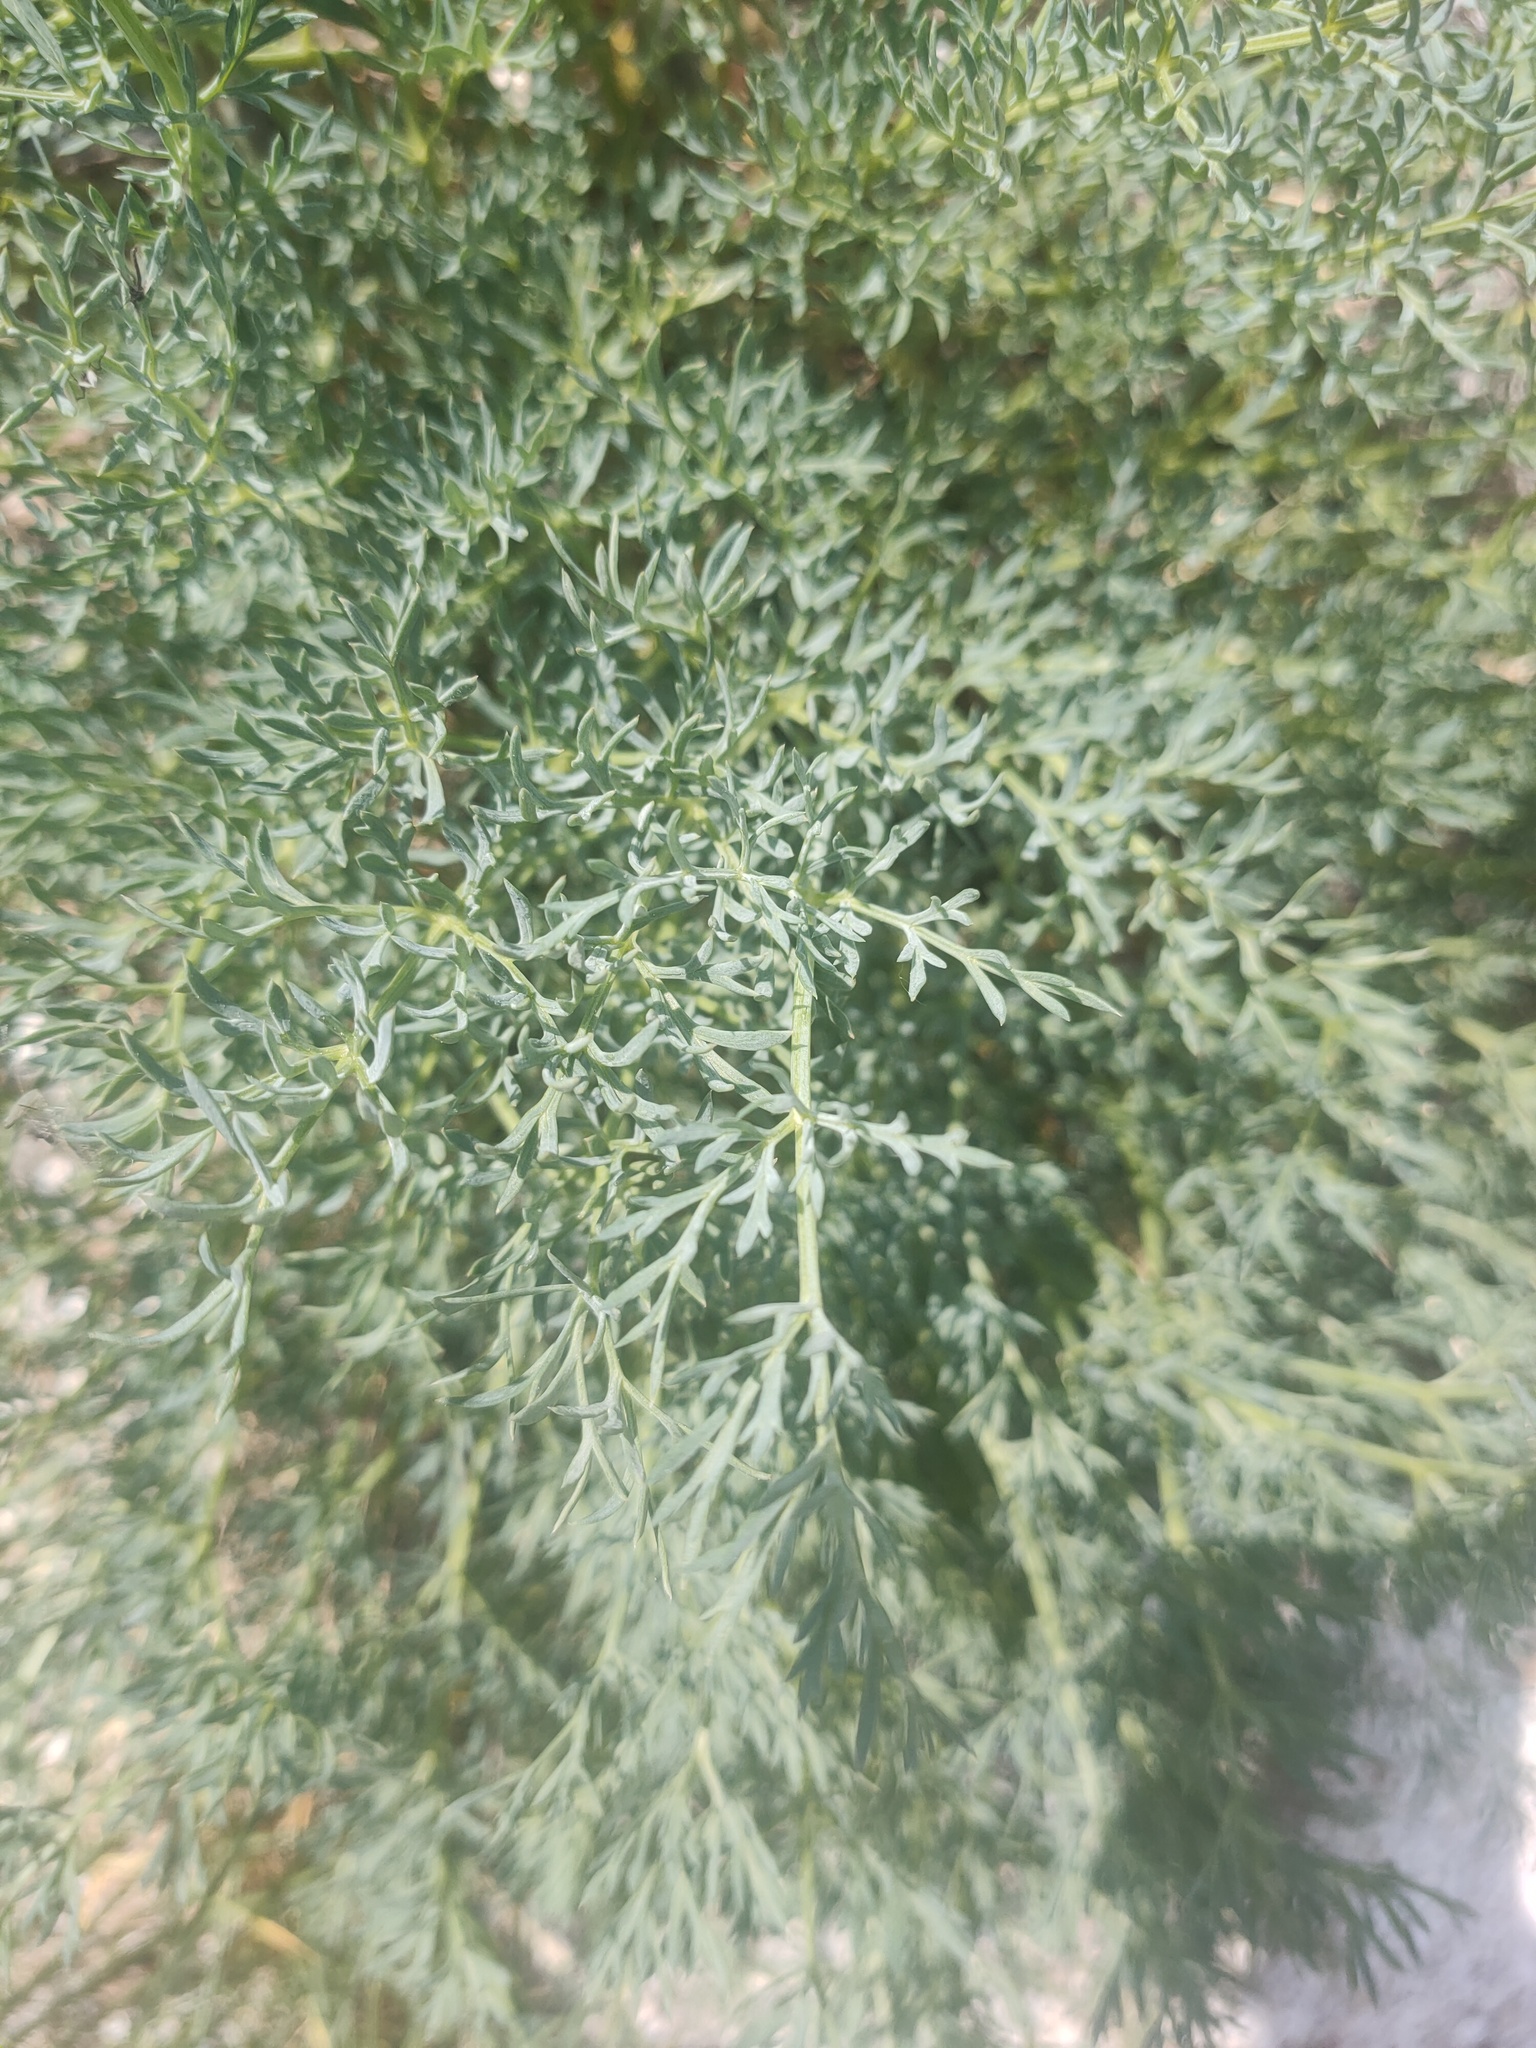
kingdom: Plantae
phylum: Tracheophyta
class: Magnoliopsida
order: Apiales
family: Apiaceae
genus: Phlojodicarpus
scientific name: Phlojodicarpus sibiricus
